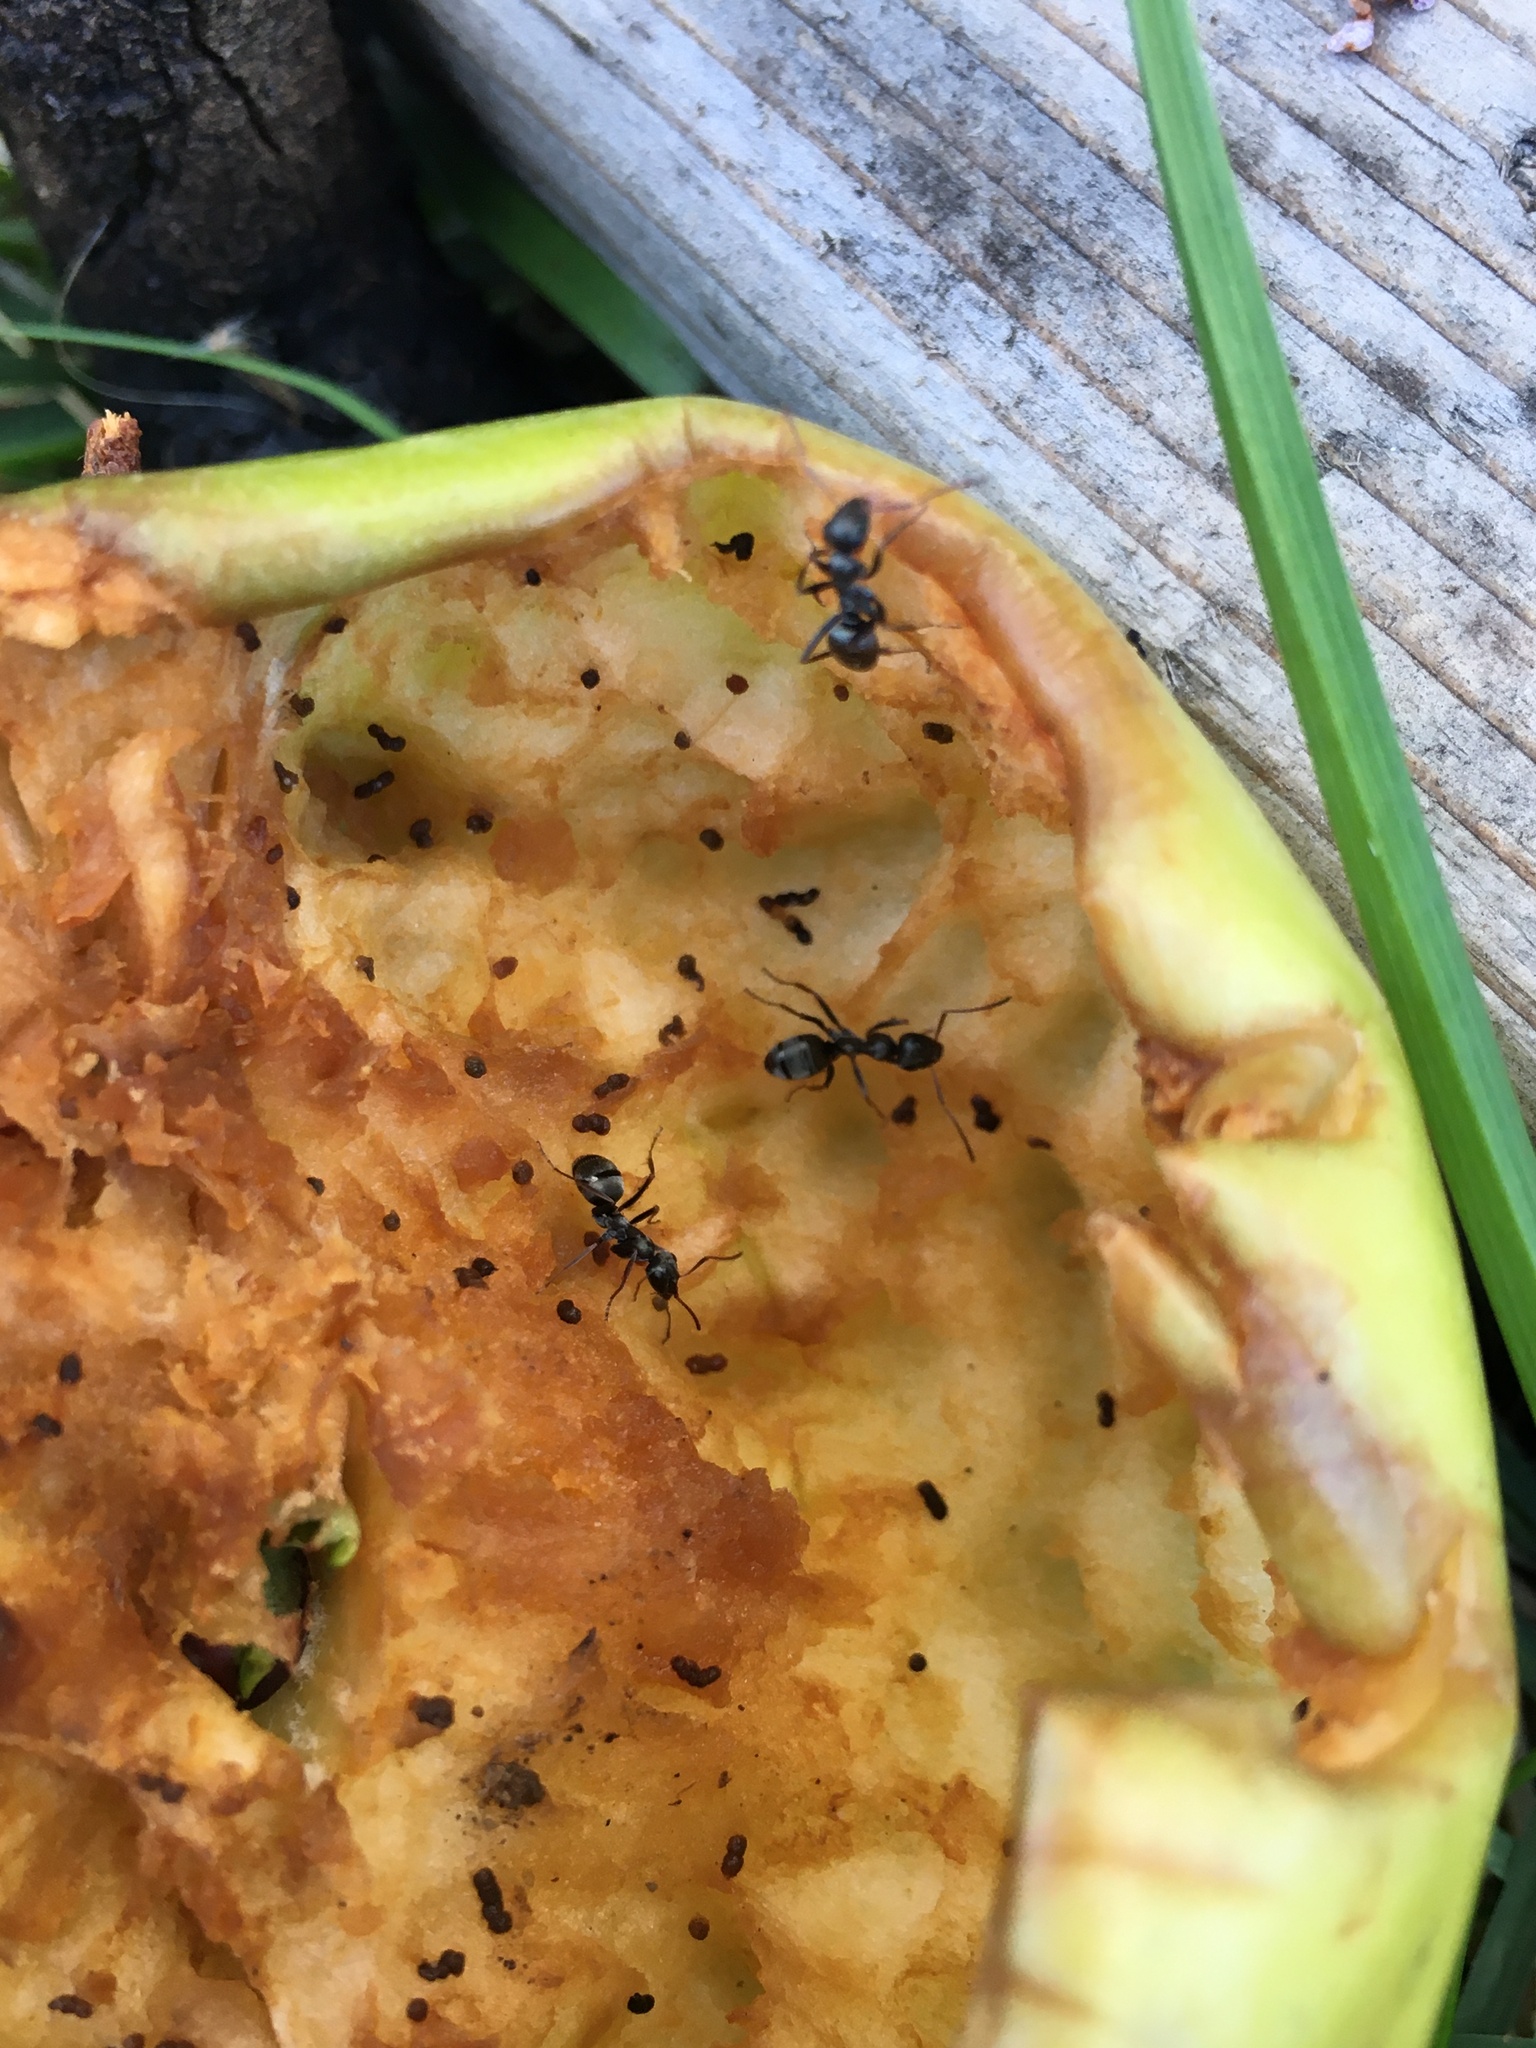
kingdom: Animalia
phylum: Arthropoda
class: Insecta
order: Hymenoptera
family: Formicidae
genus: Formica
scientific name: Formica
